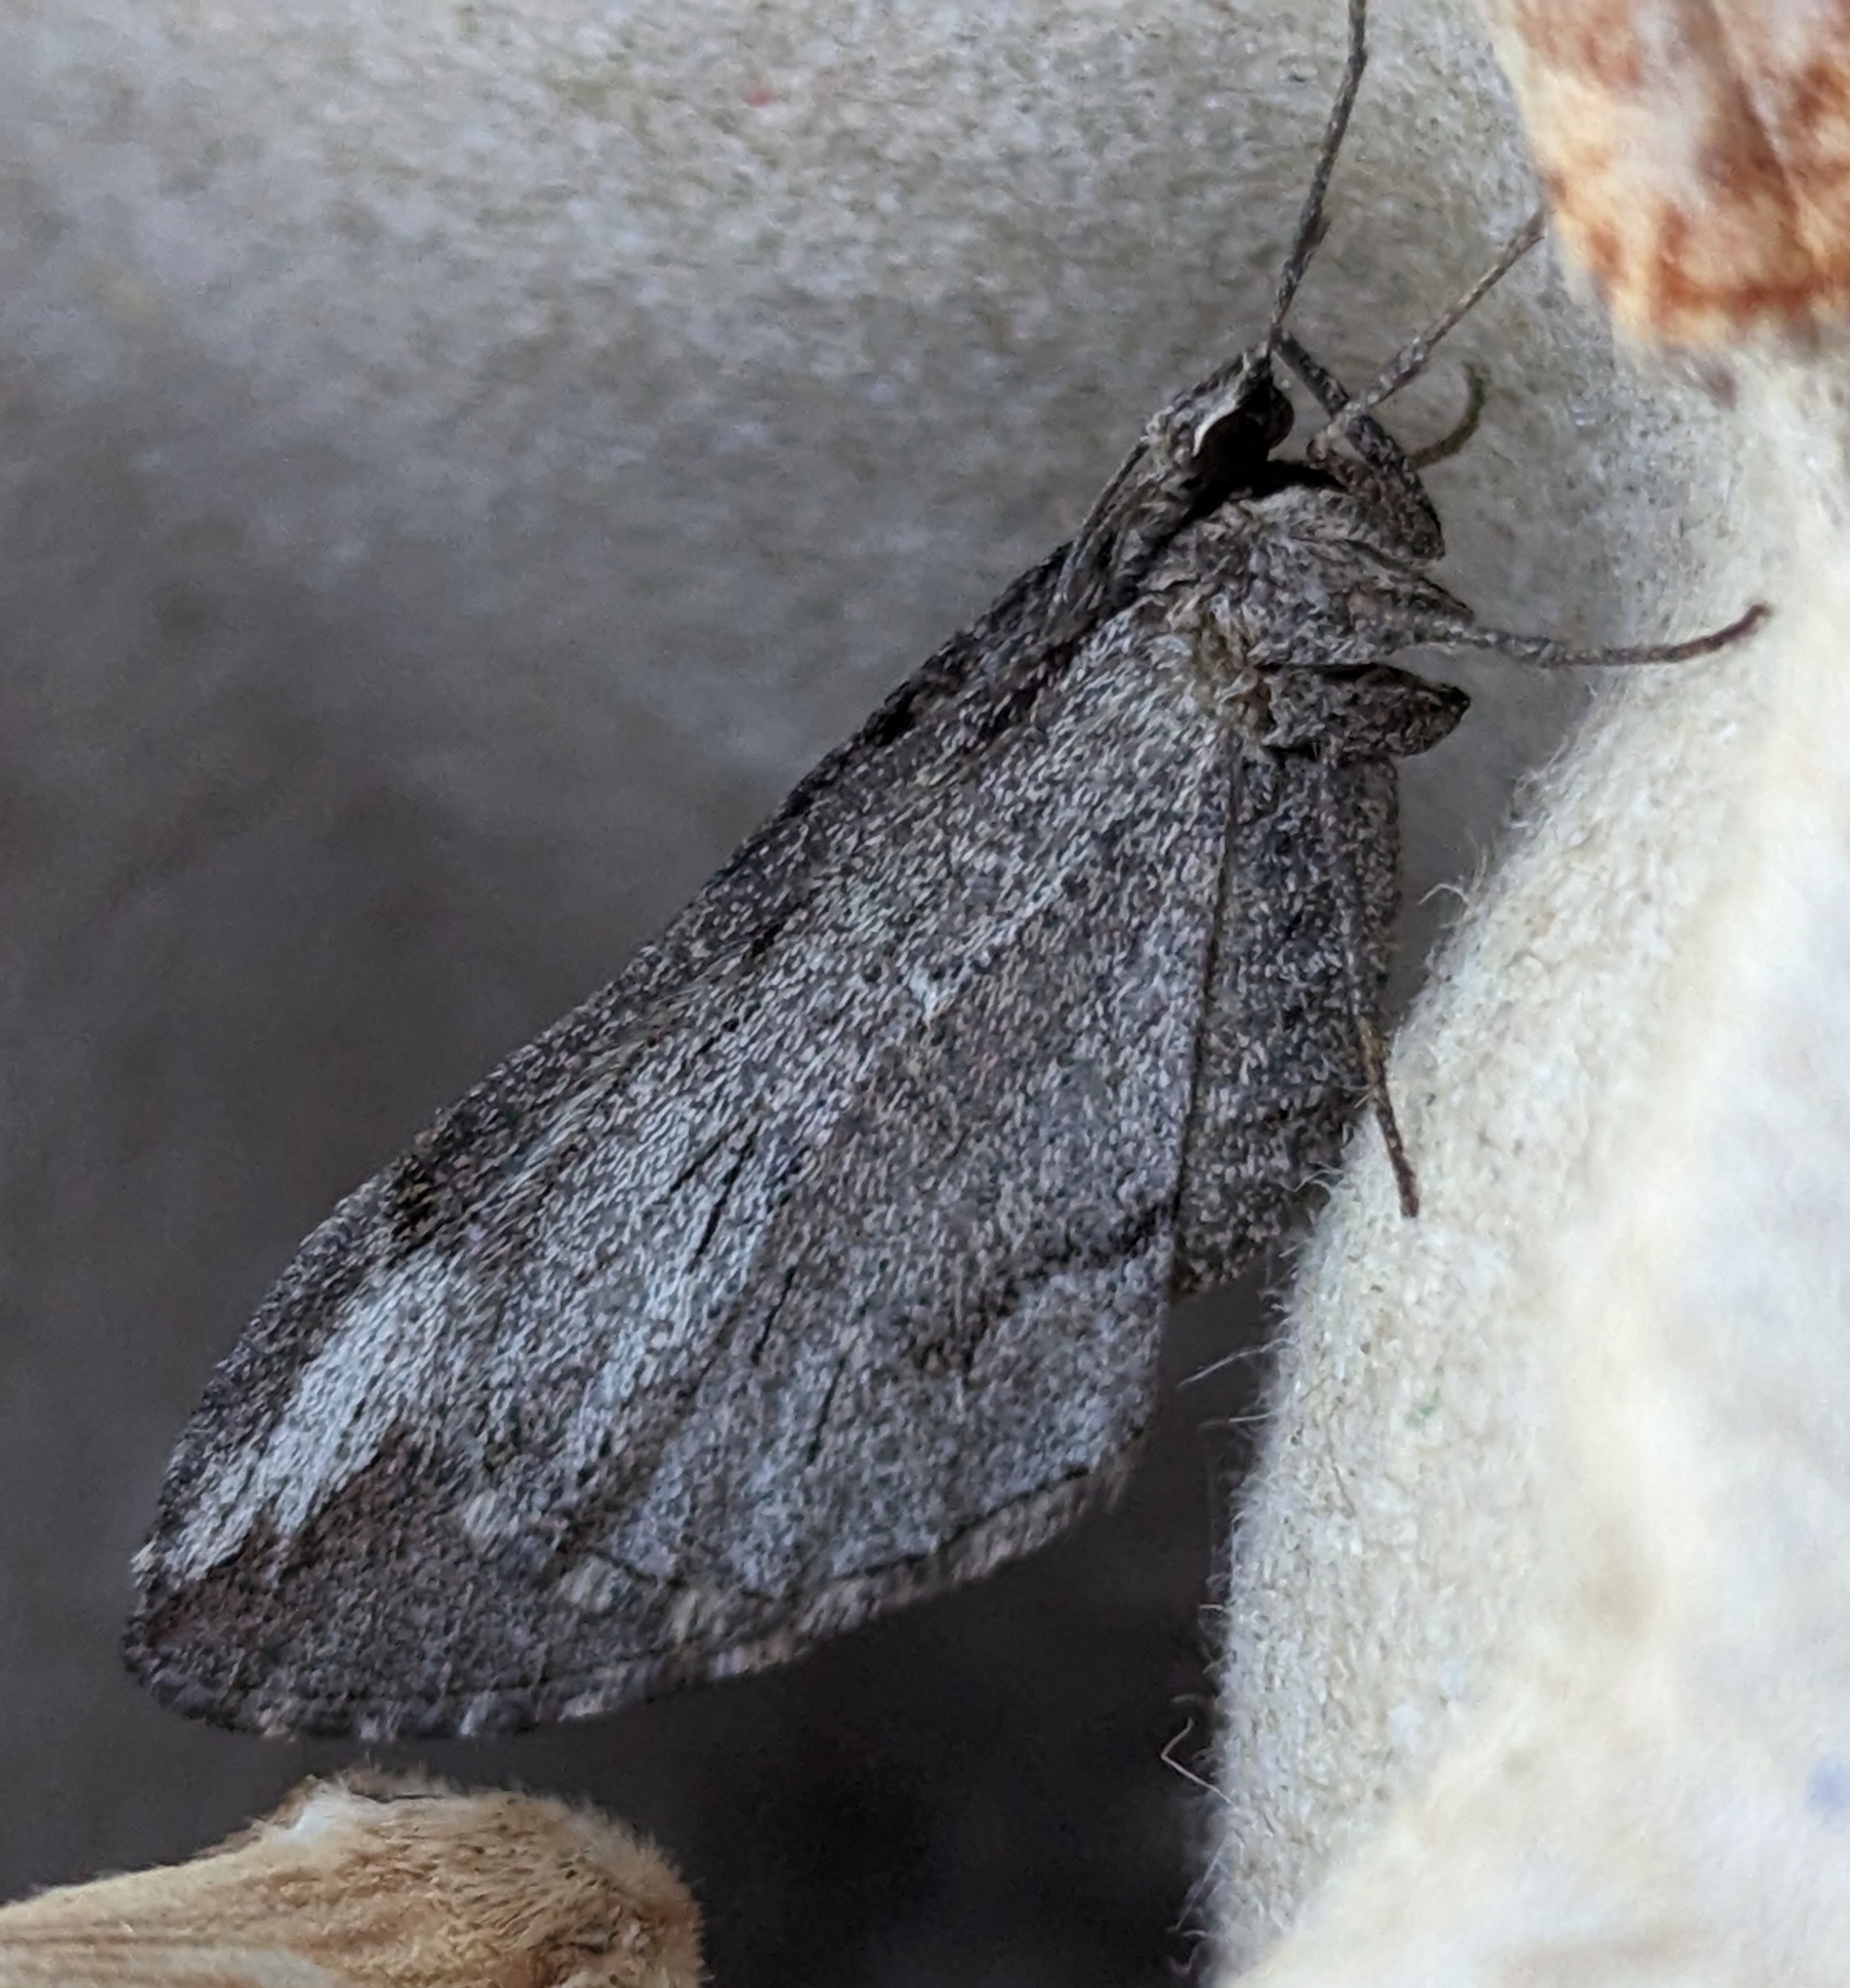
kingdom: Animalia
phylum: Arthropoda
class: Insecta
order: Lepidoptera
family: Geometridae
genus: Stamnoctenis
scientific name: Stamnoctenis pearsalli
